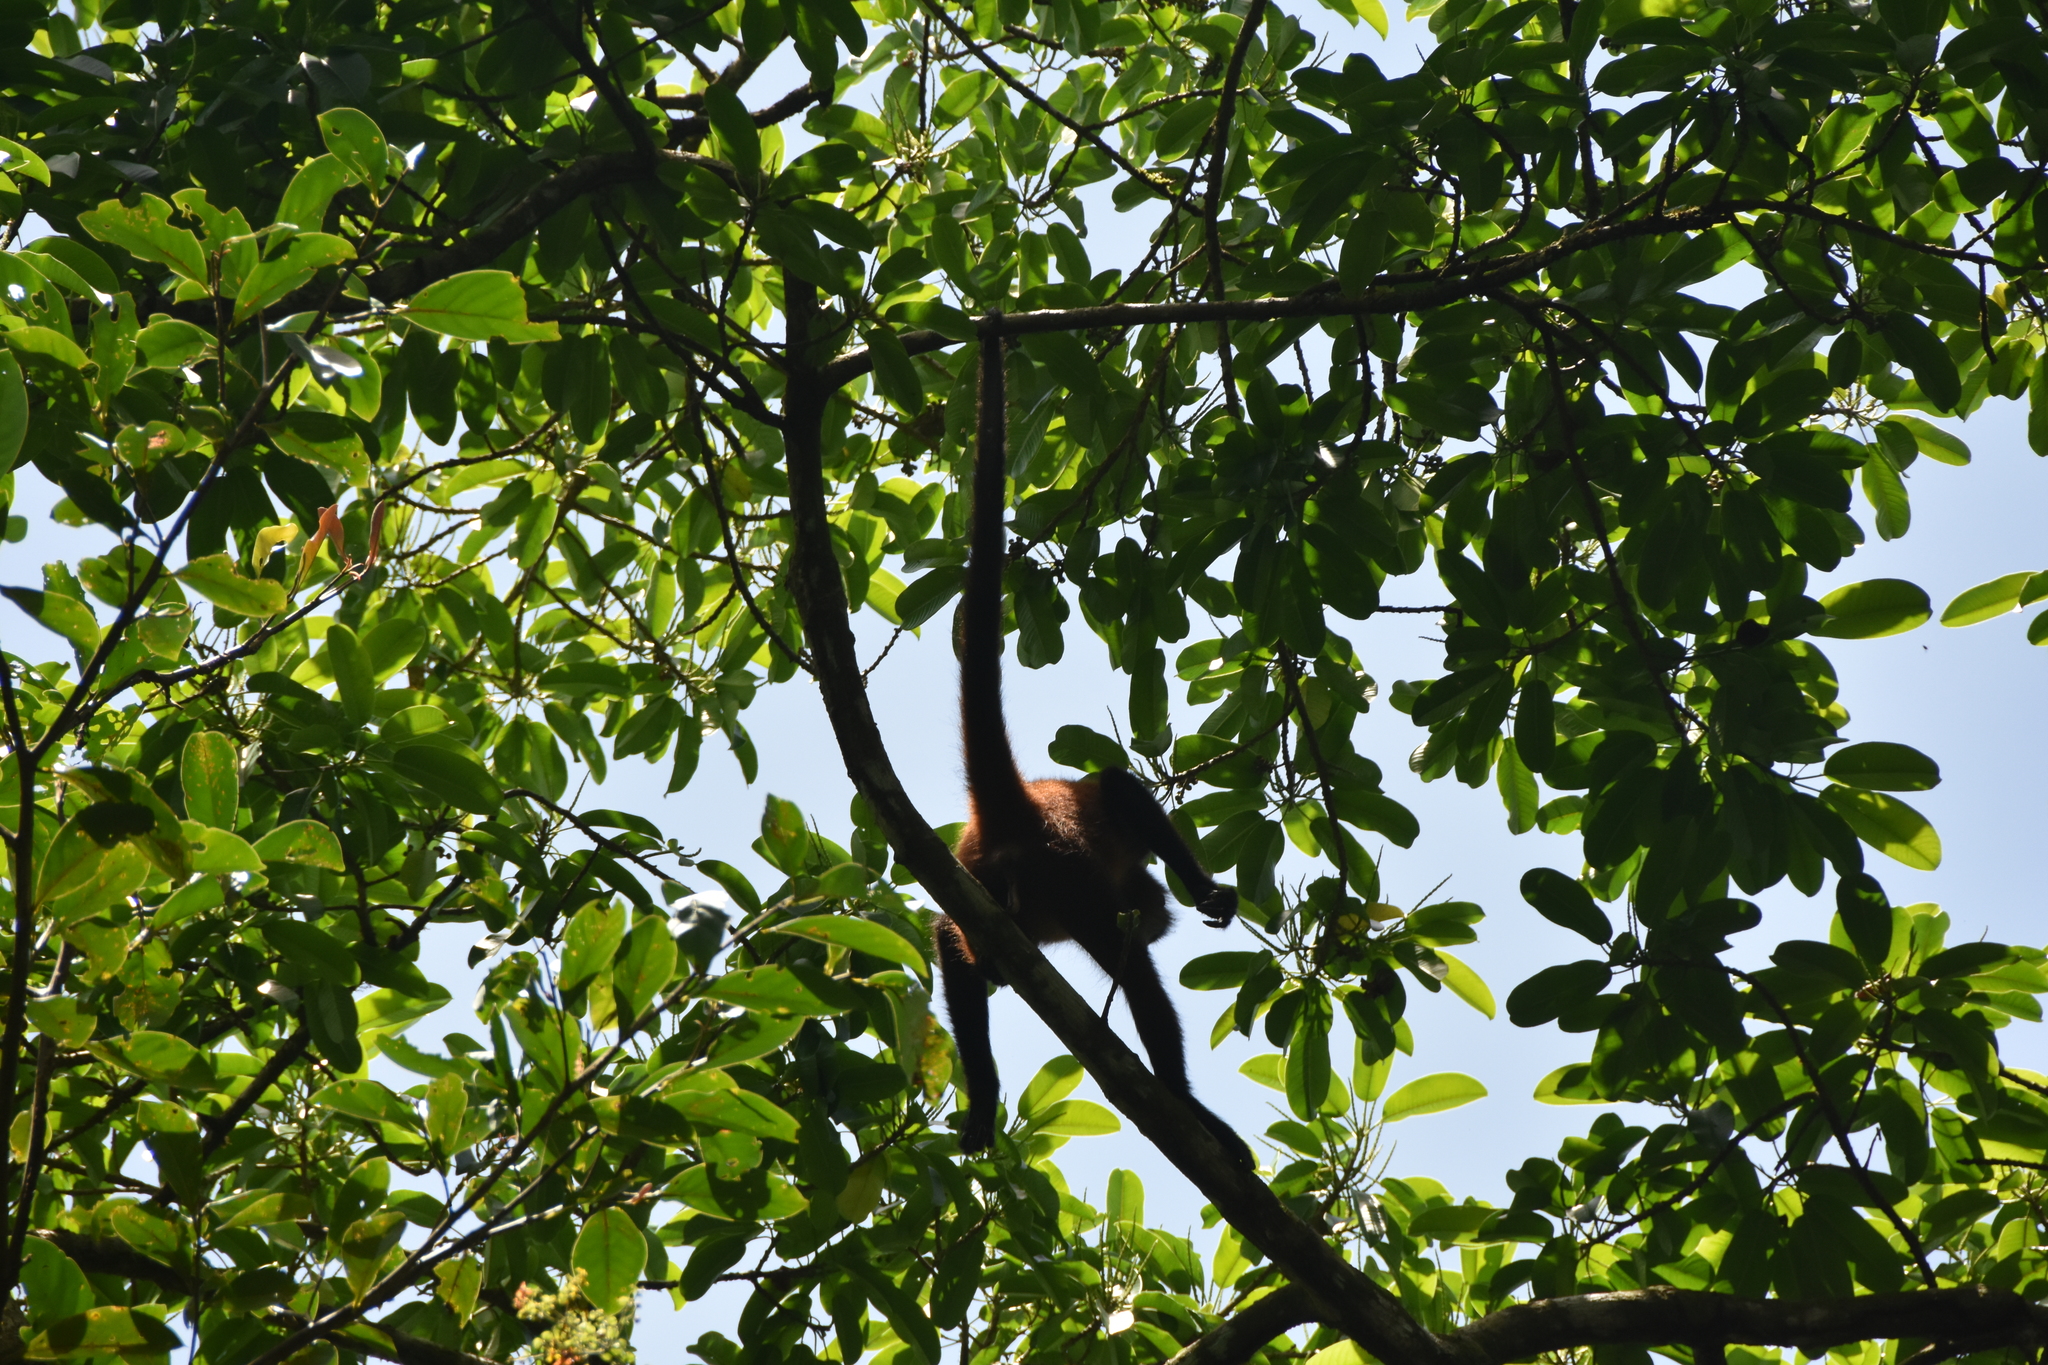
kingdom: Animalia
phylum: Chordata
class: Mammalia
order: Primates
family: Atelidae
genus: Ateles
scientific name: Ateles geoffroyi
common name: Black-handed spider monkey
